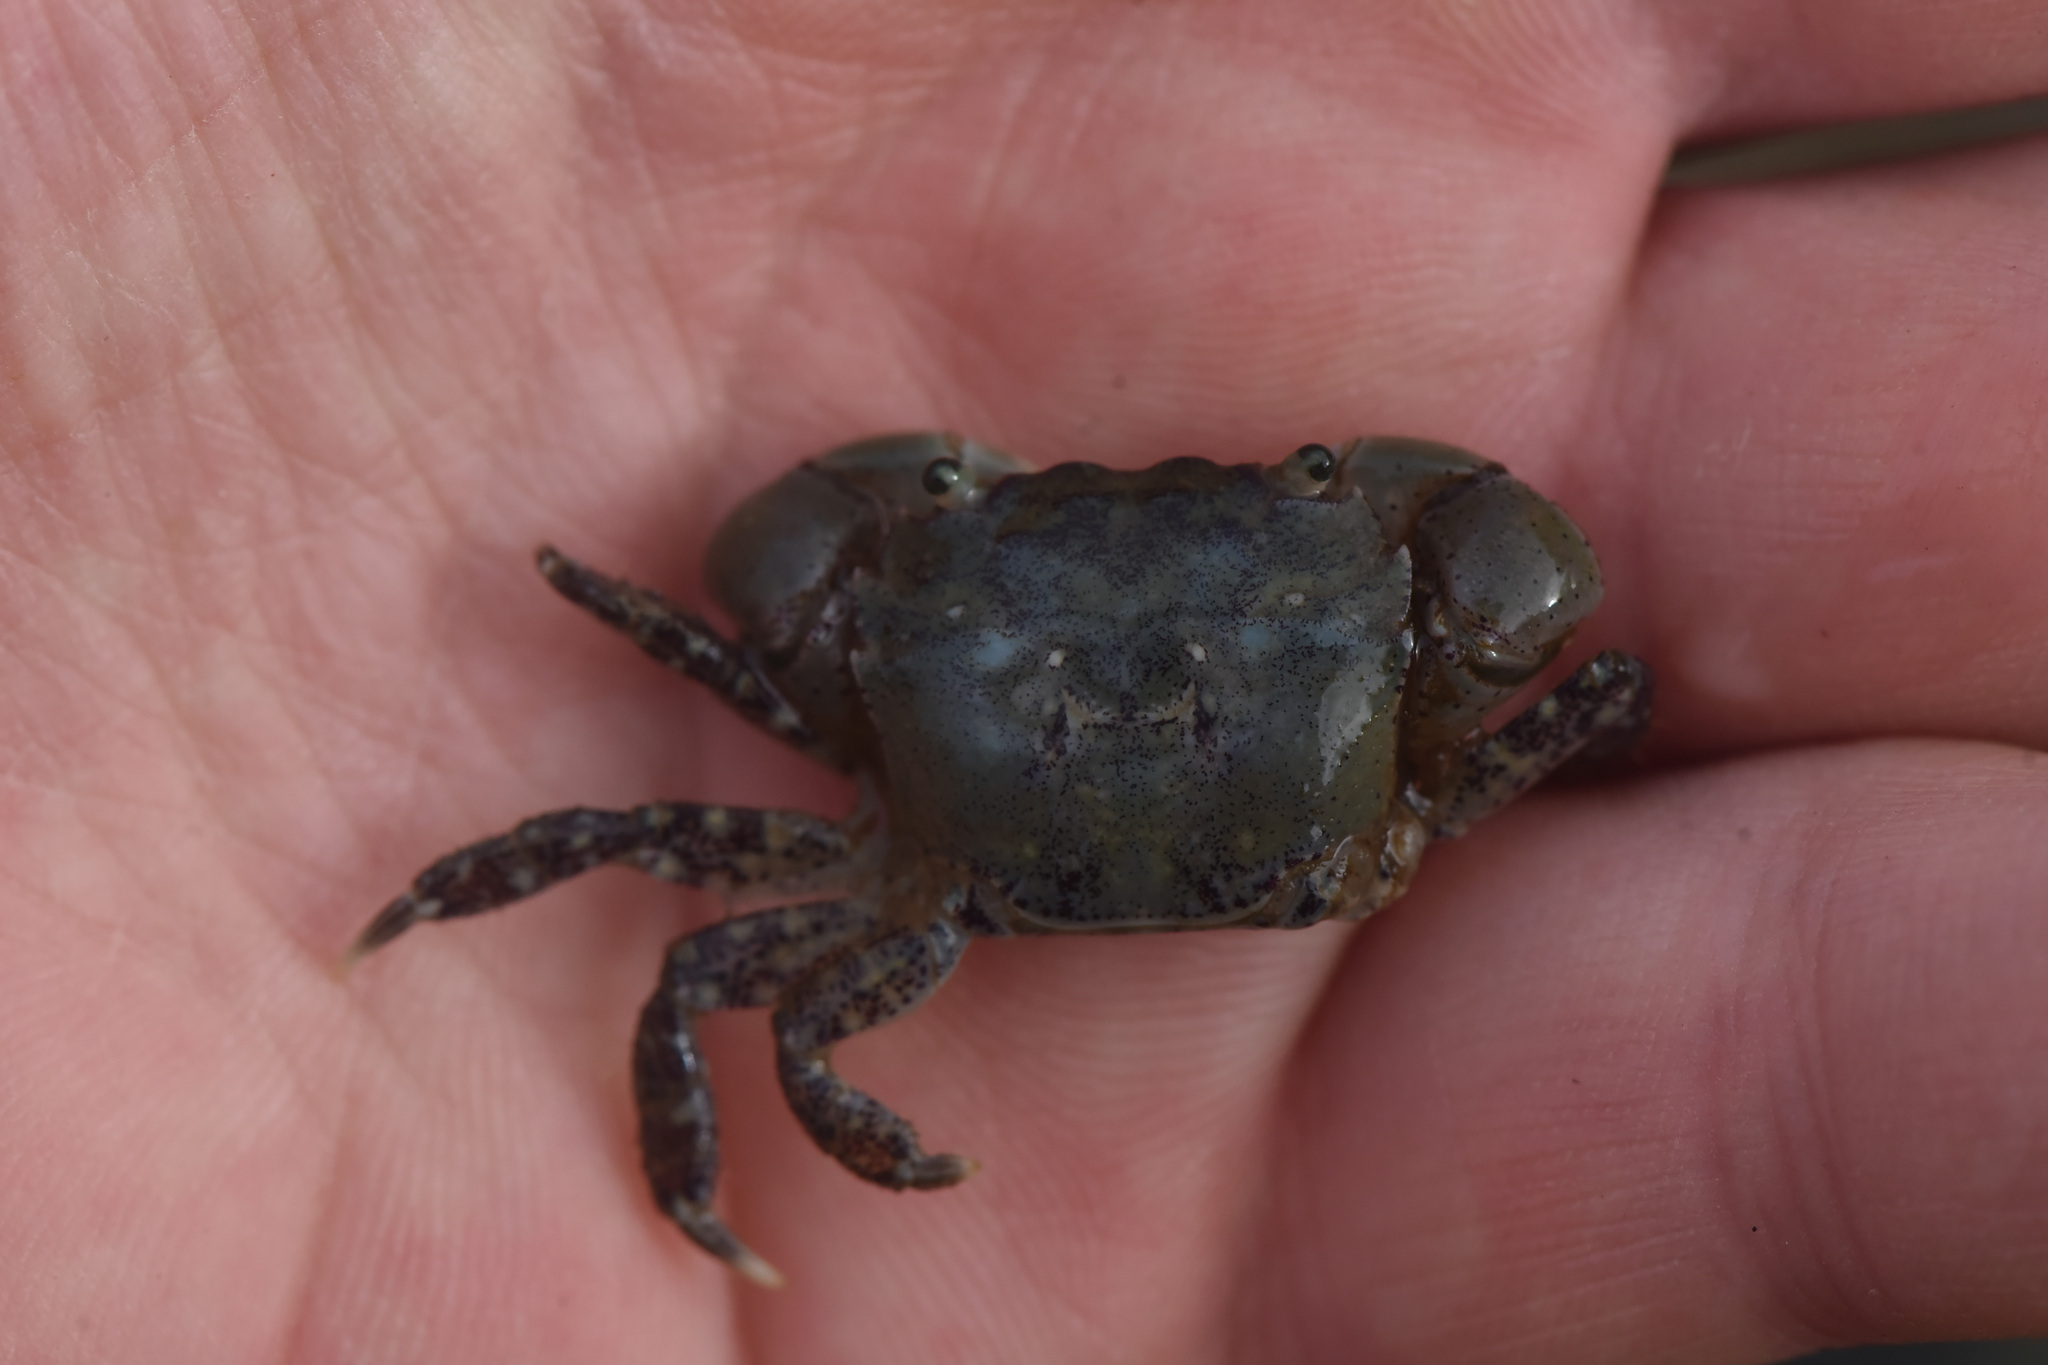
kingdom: Animalia
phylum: Arthropoda
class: Malacostraca
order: Decapoda
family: Varunidae
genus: Hemigrapsus
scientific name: Hemigrapsus oregonensis
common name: Yellow shore crab
